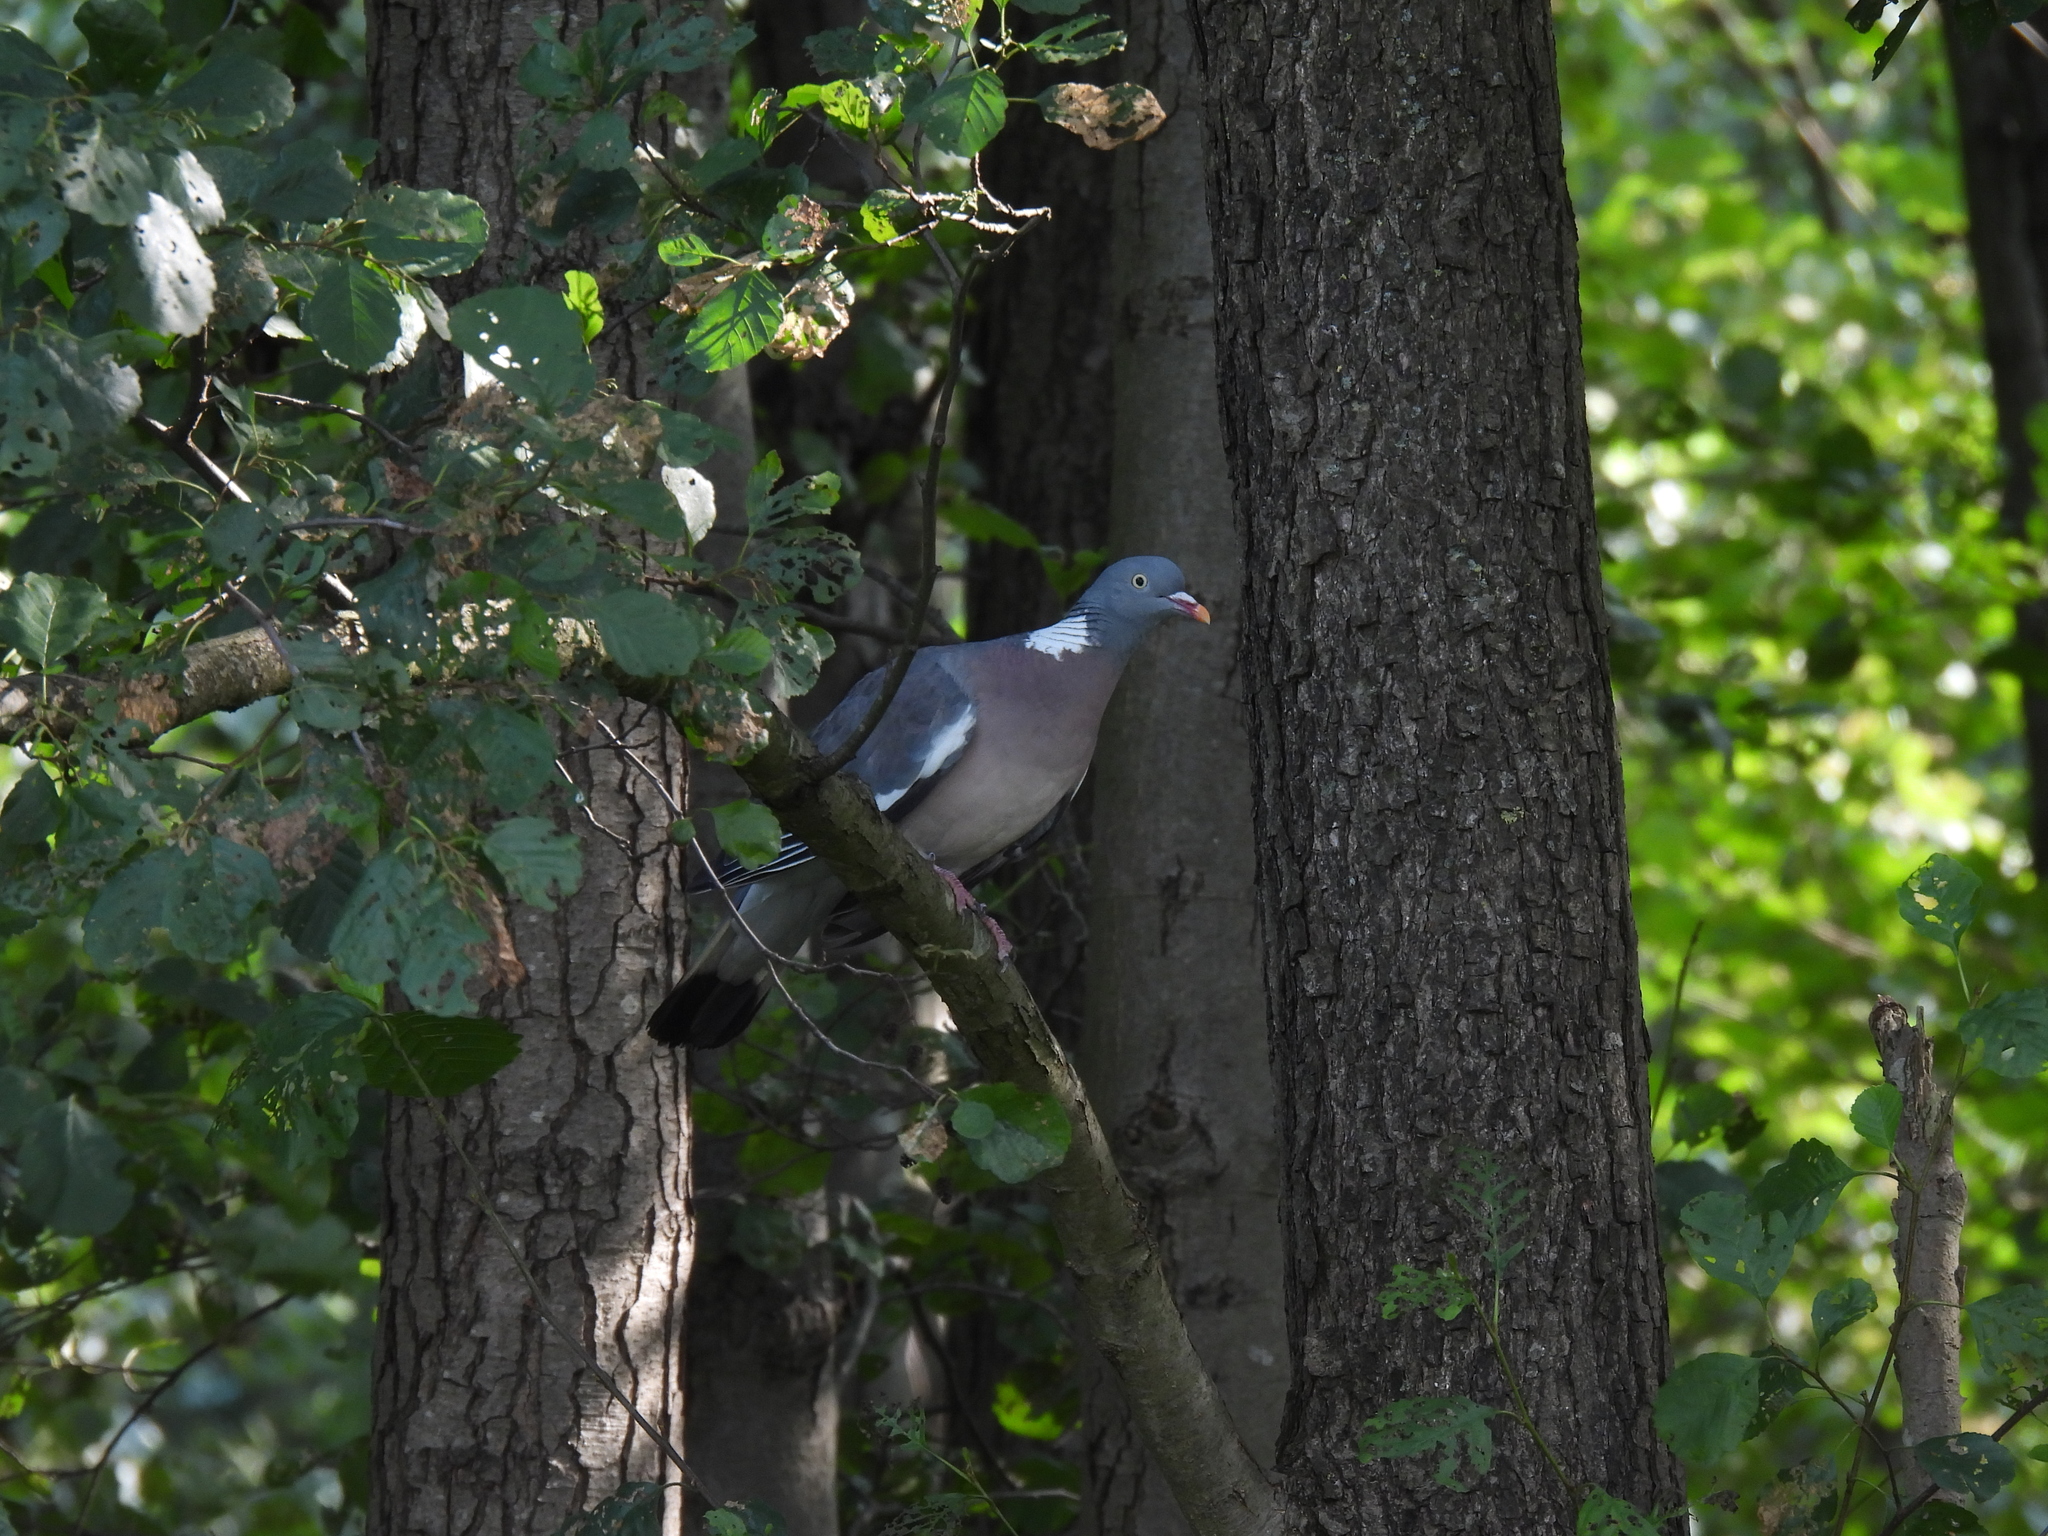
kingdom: Animalia
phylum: Chordata
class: Aves
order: Columbiformes
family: Columbidae
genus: Columba
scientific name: Columba palumbus
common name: Common wood pigeon
